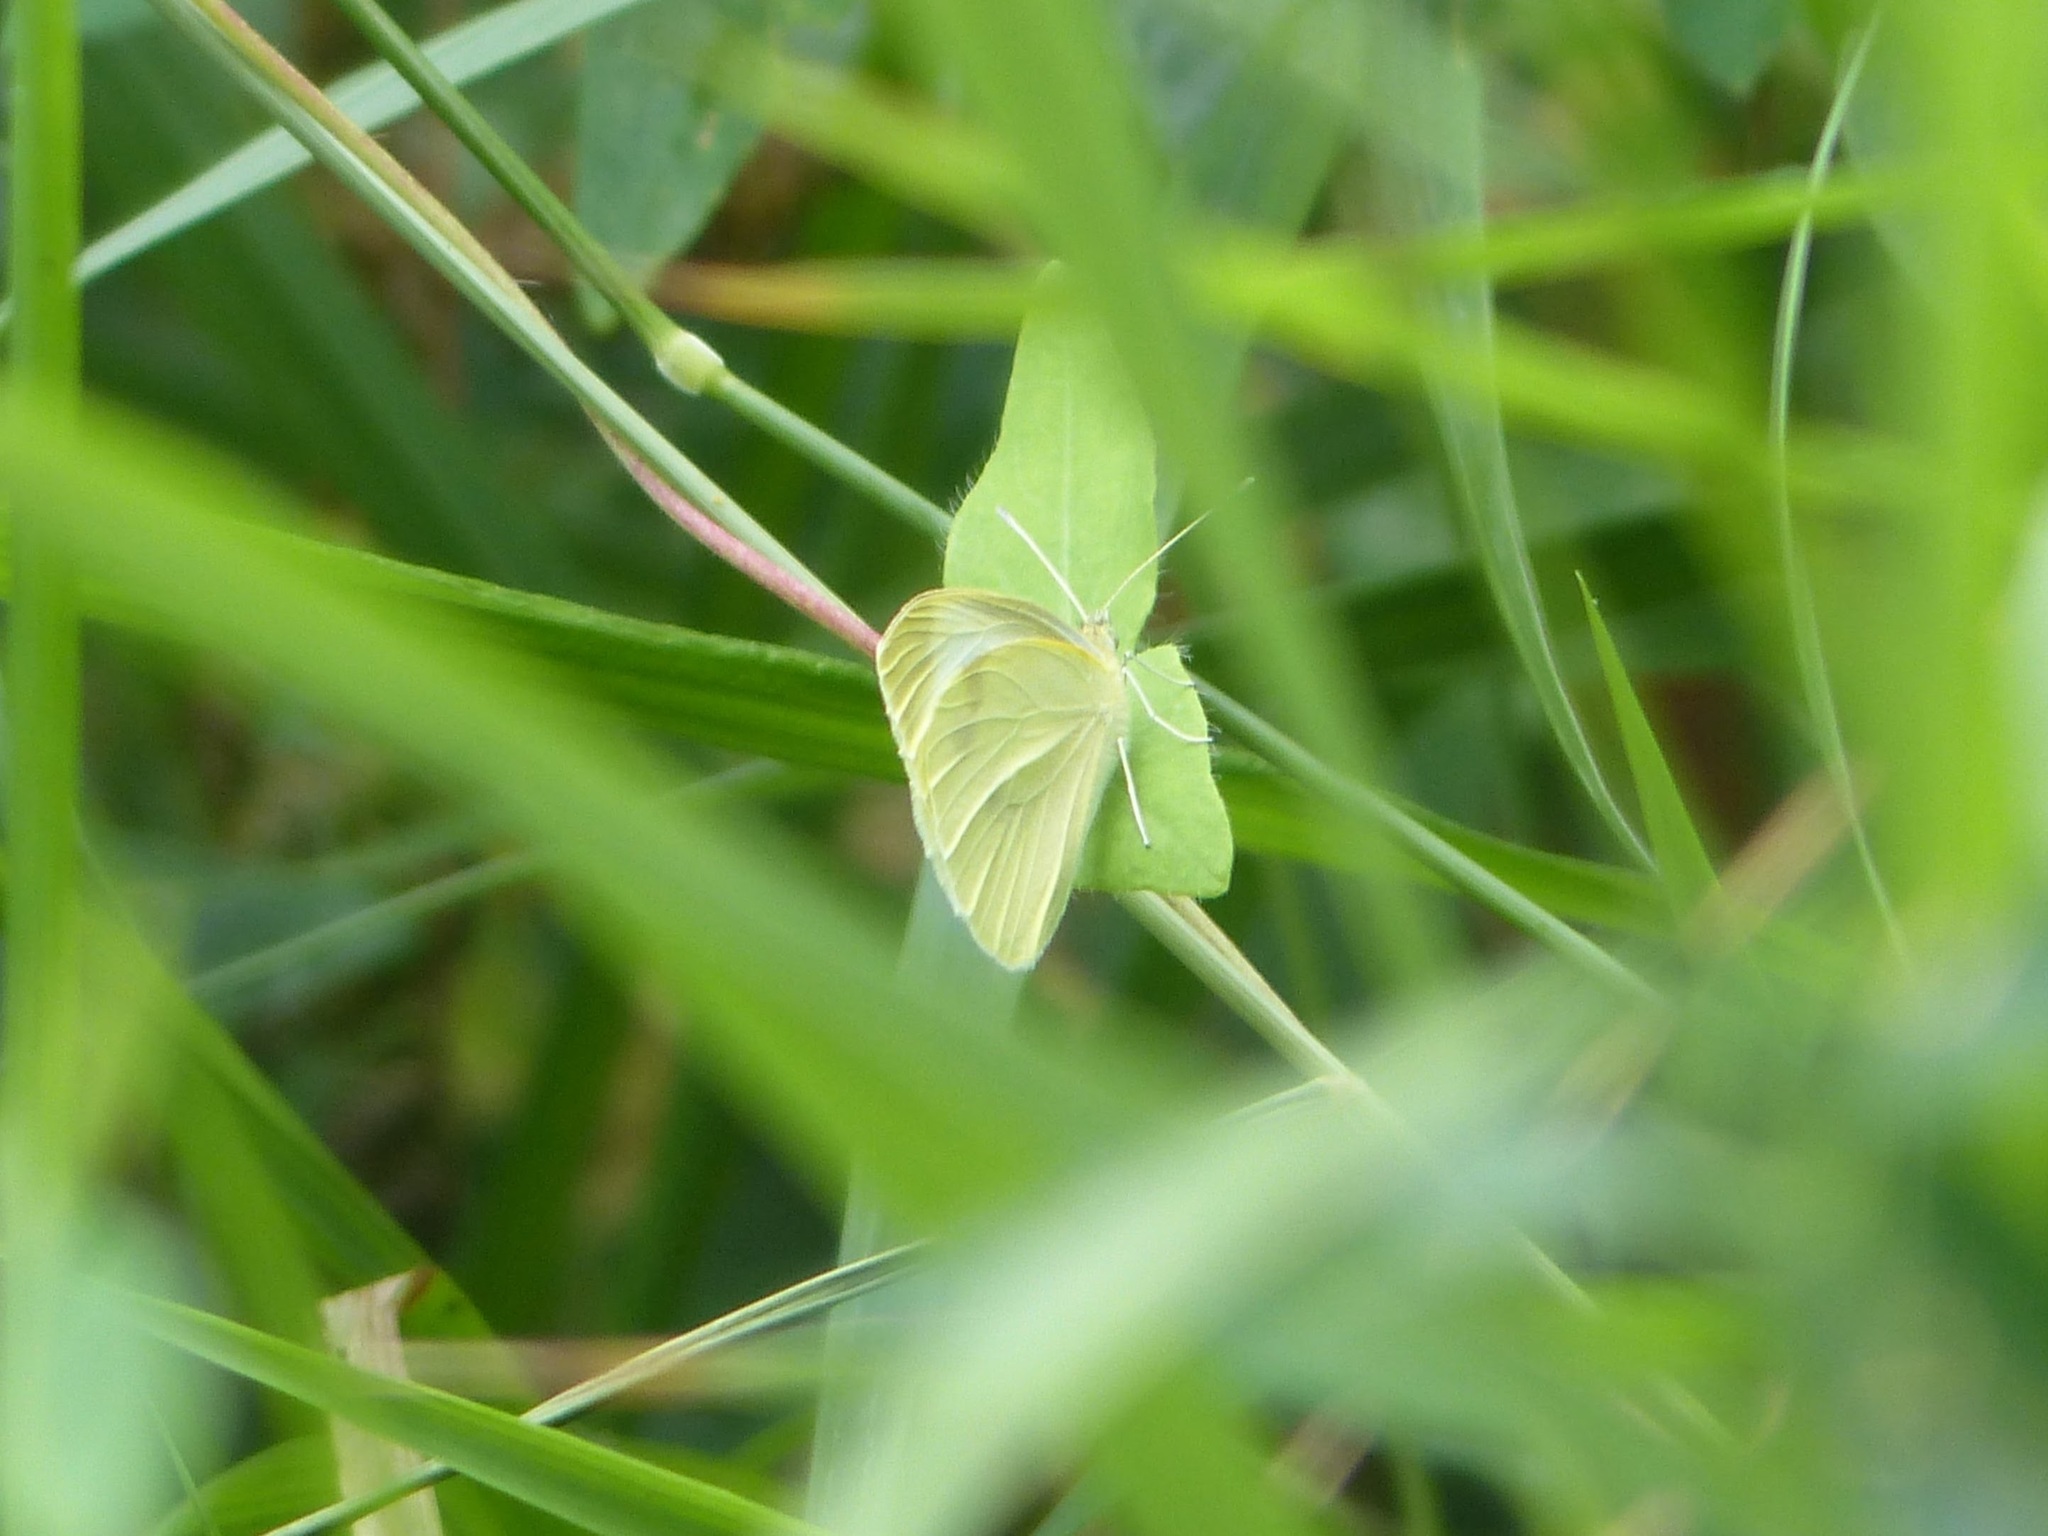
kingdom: Animalia
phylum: Arthropoda
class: Insecta
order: Lepidoptera
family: Pieridae
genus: Pieris
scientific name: Pieris brassicae
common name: Large white
